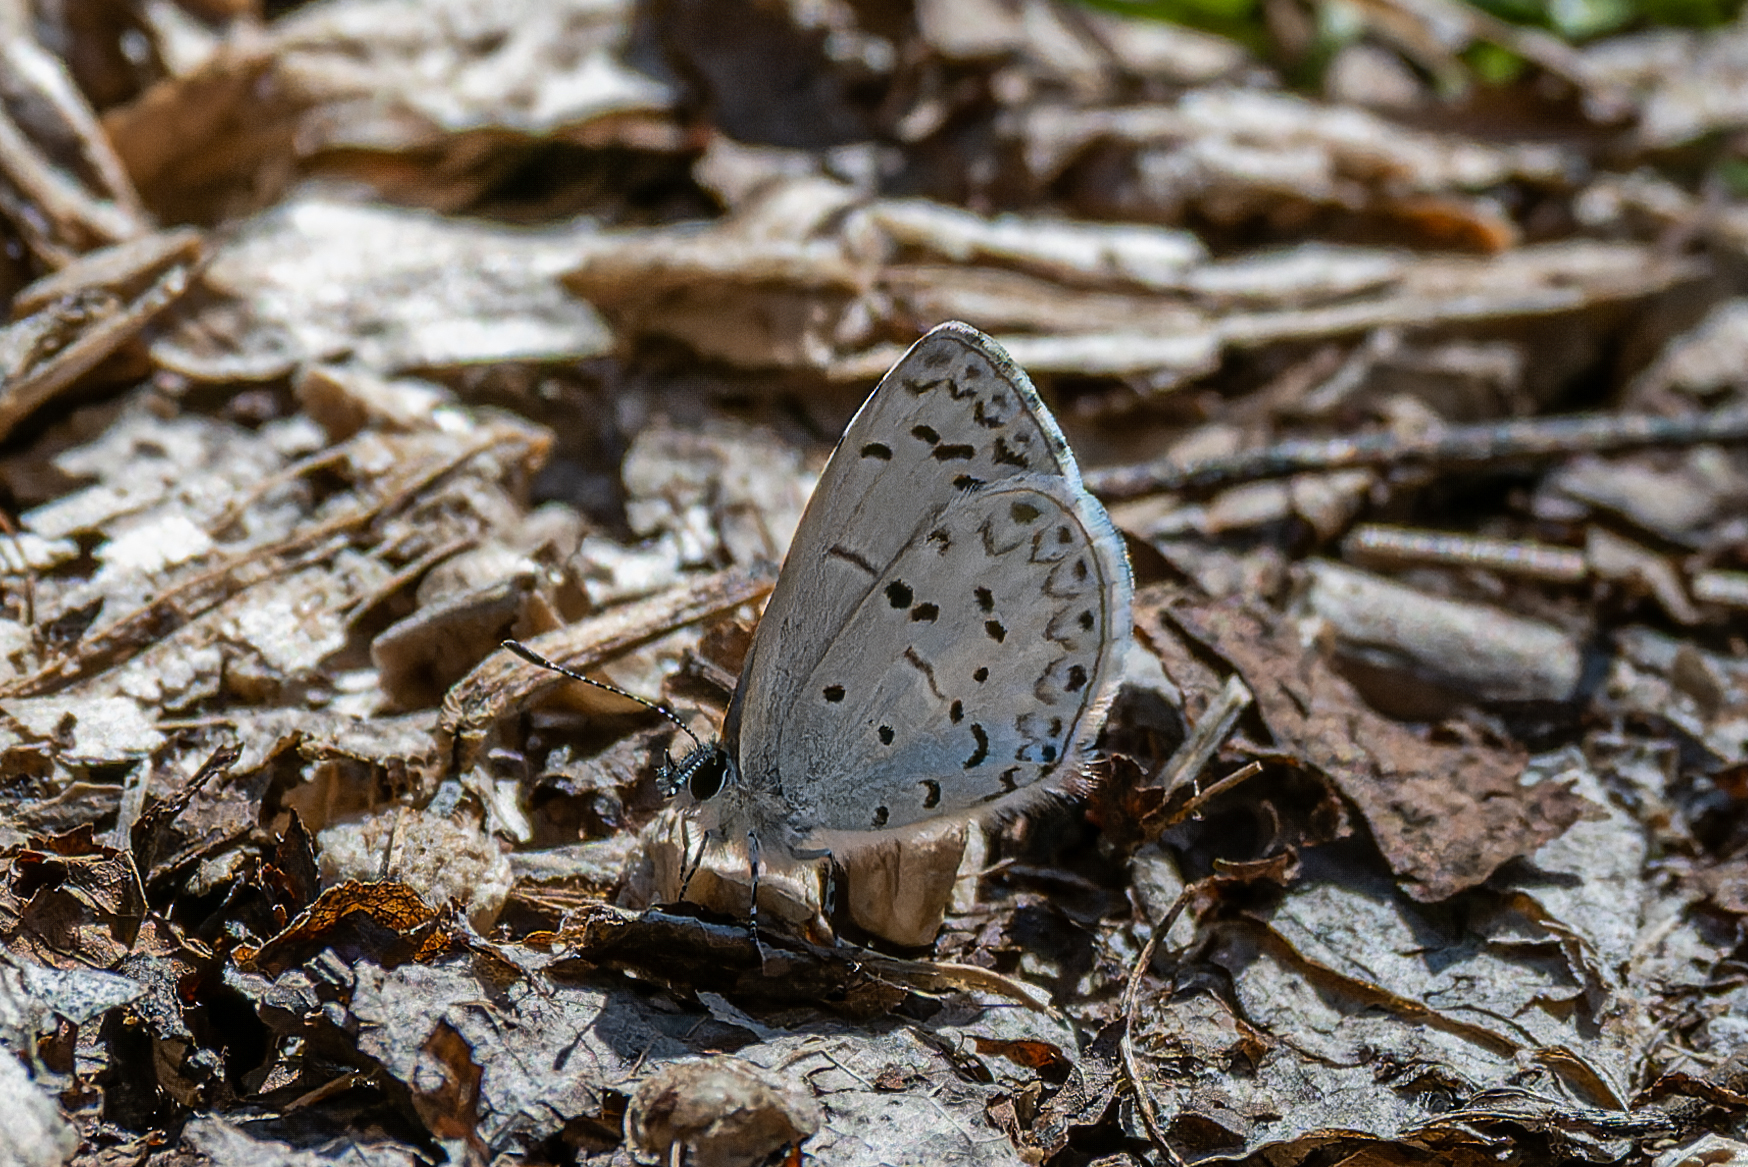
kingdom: Animalia
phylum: Arthropoda
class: Insecta
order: Lepidoptera
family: Lycaenidae
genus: Celastrina
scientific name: Celastrina ladon
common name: Spring azure
